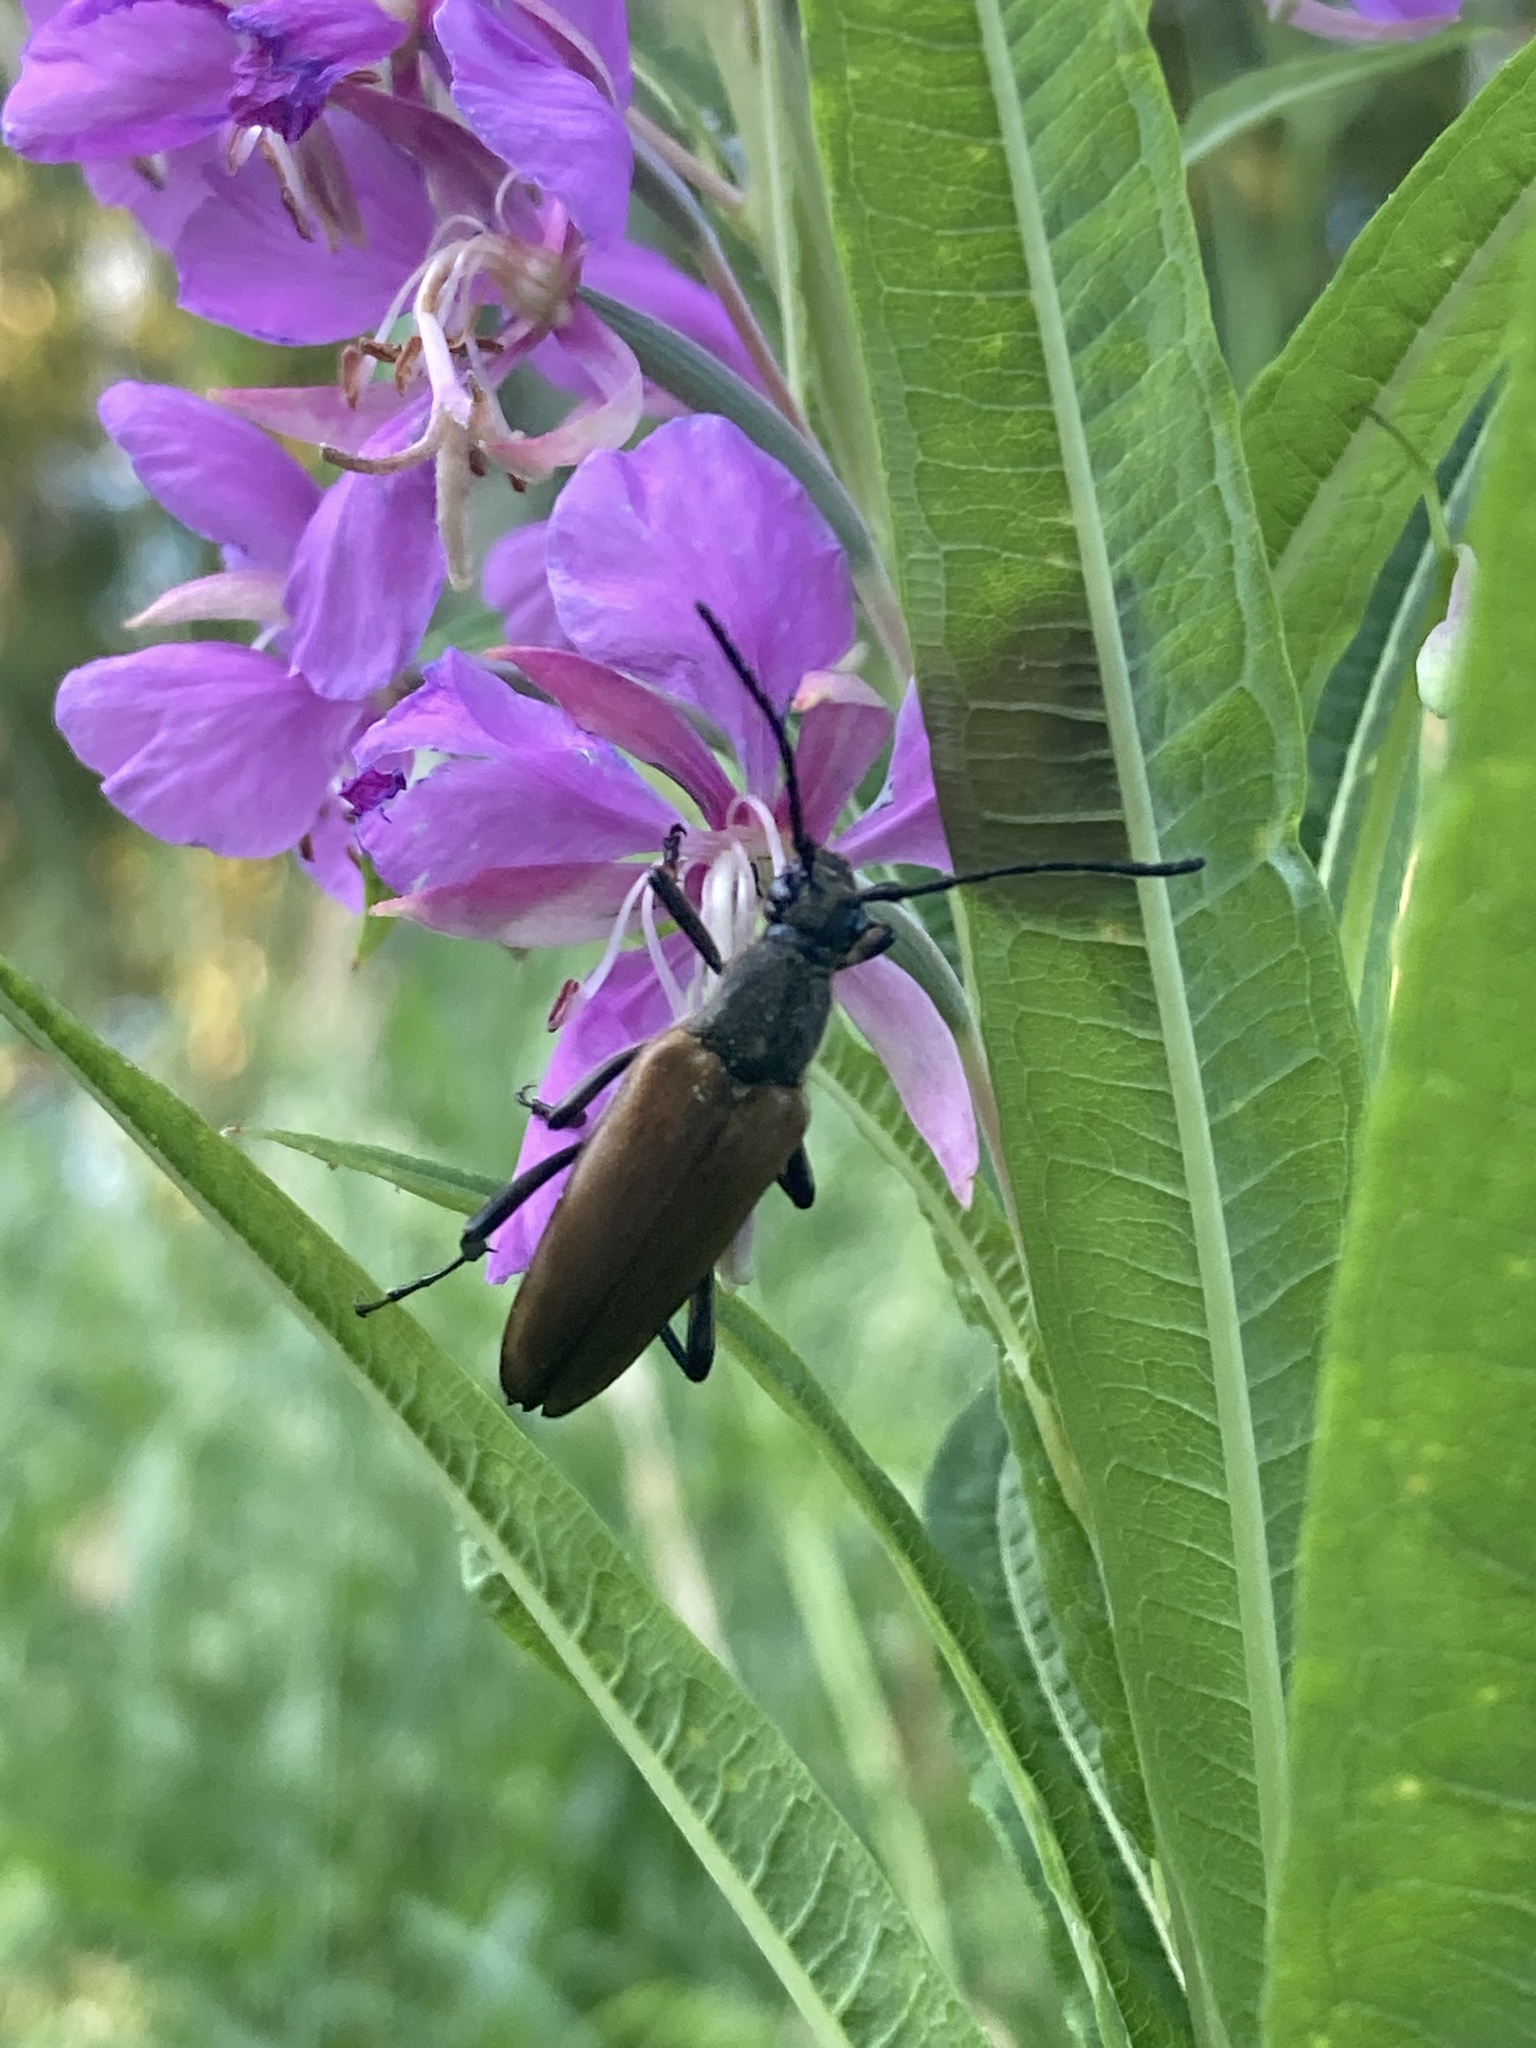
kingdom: Animalia
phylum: Arthropoda
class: Insecta
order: Coleoptera
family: Cerambycidae
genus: Lepturalia
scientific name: Lepturalia nigripes
